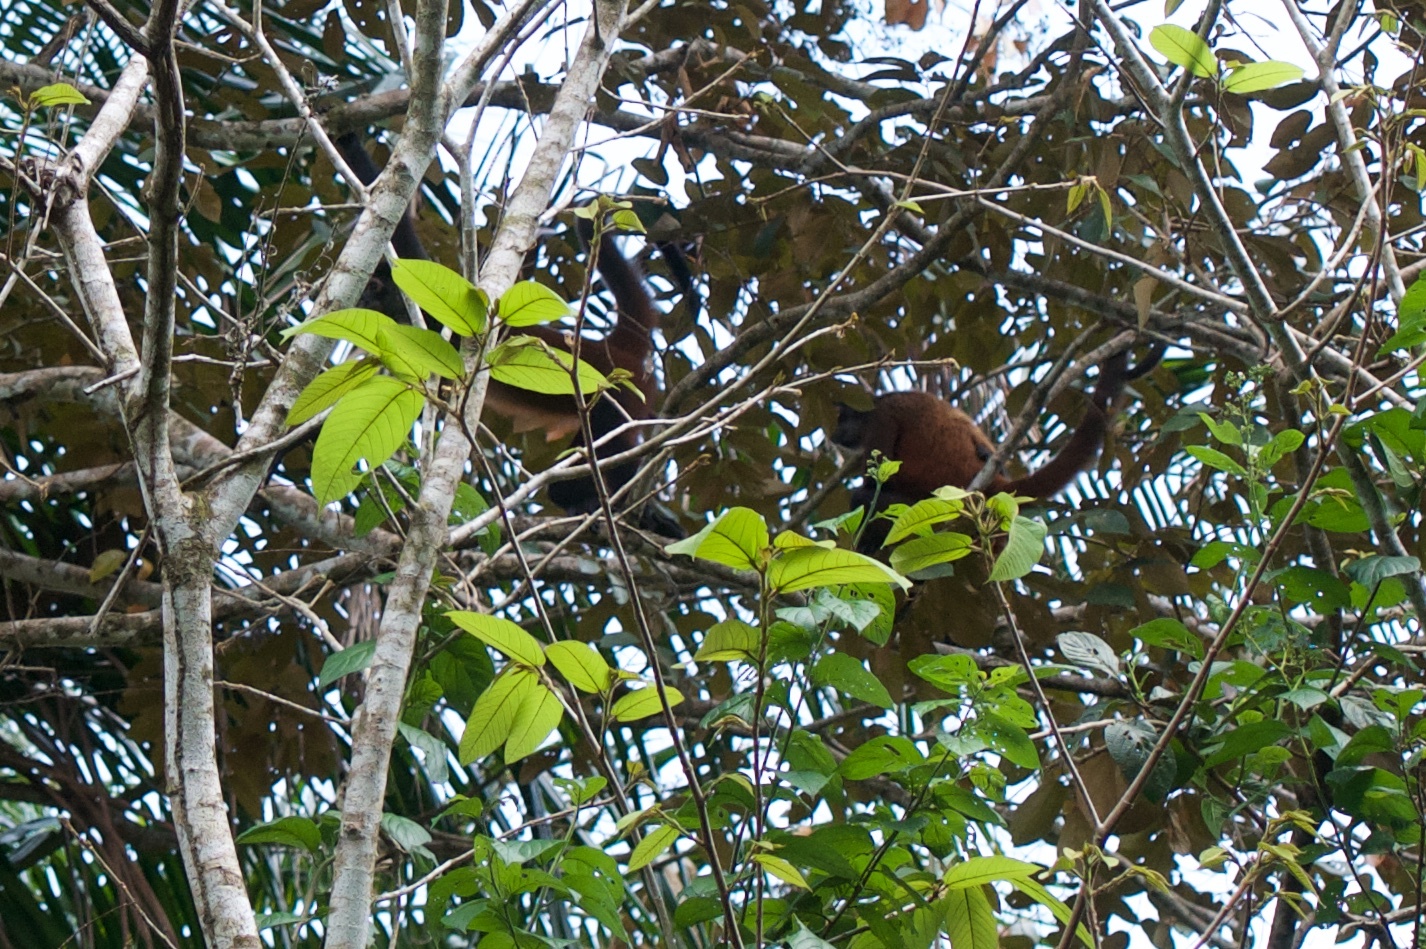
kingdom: Animalia
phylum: Chordata
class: Mammalia
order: Primates
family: Atelidae
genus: Ateles
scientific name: Ateles geoffroyi
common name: Black-handed spider monkey
